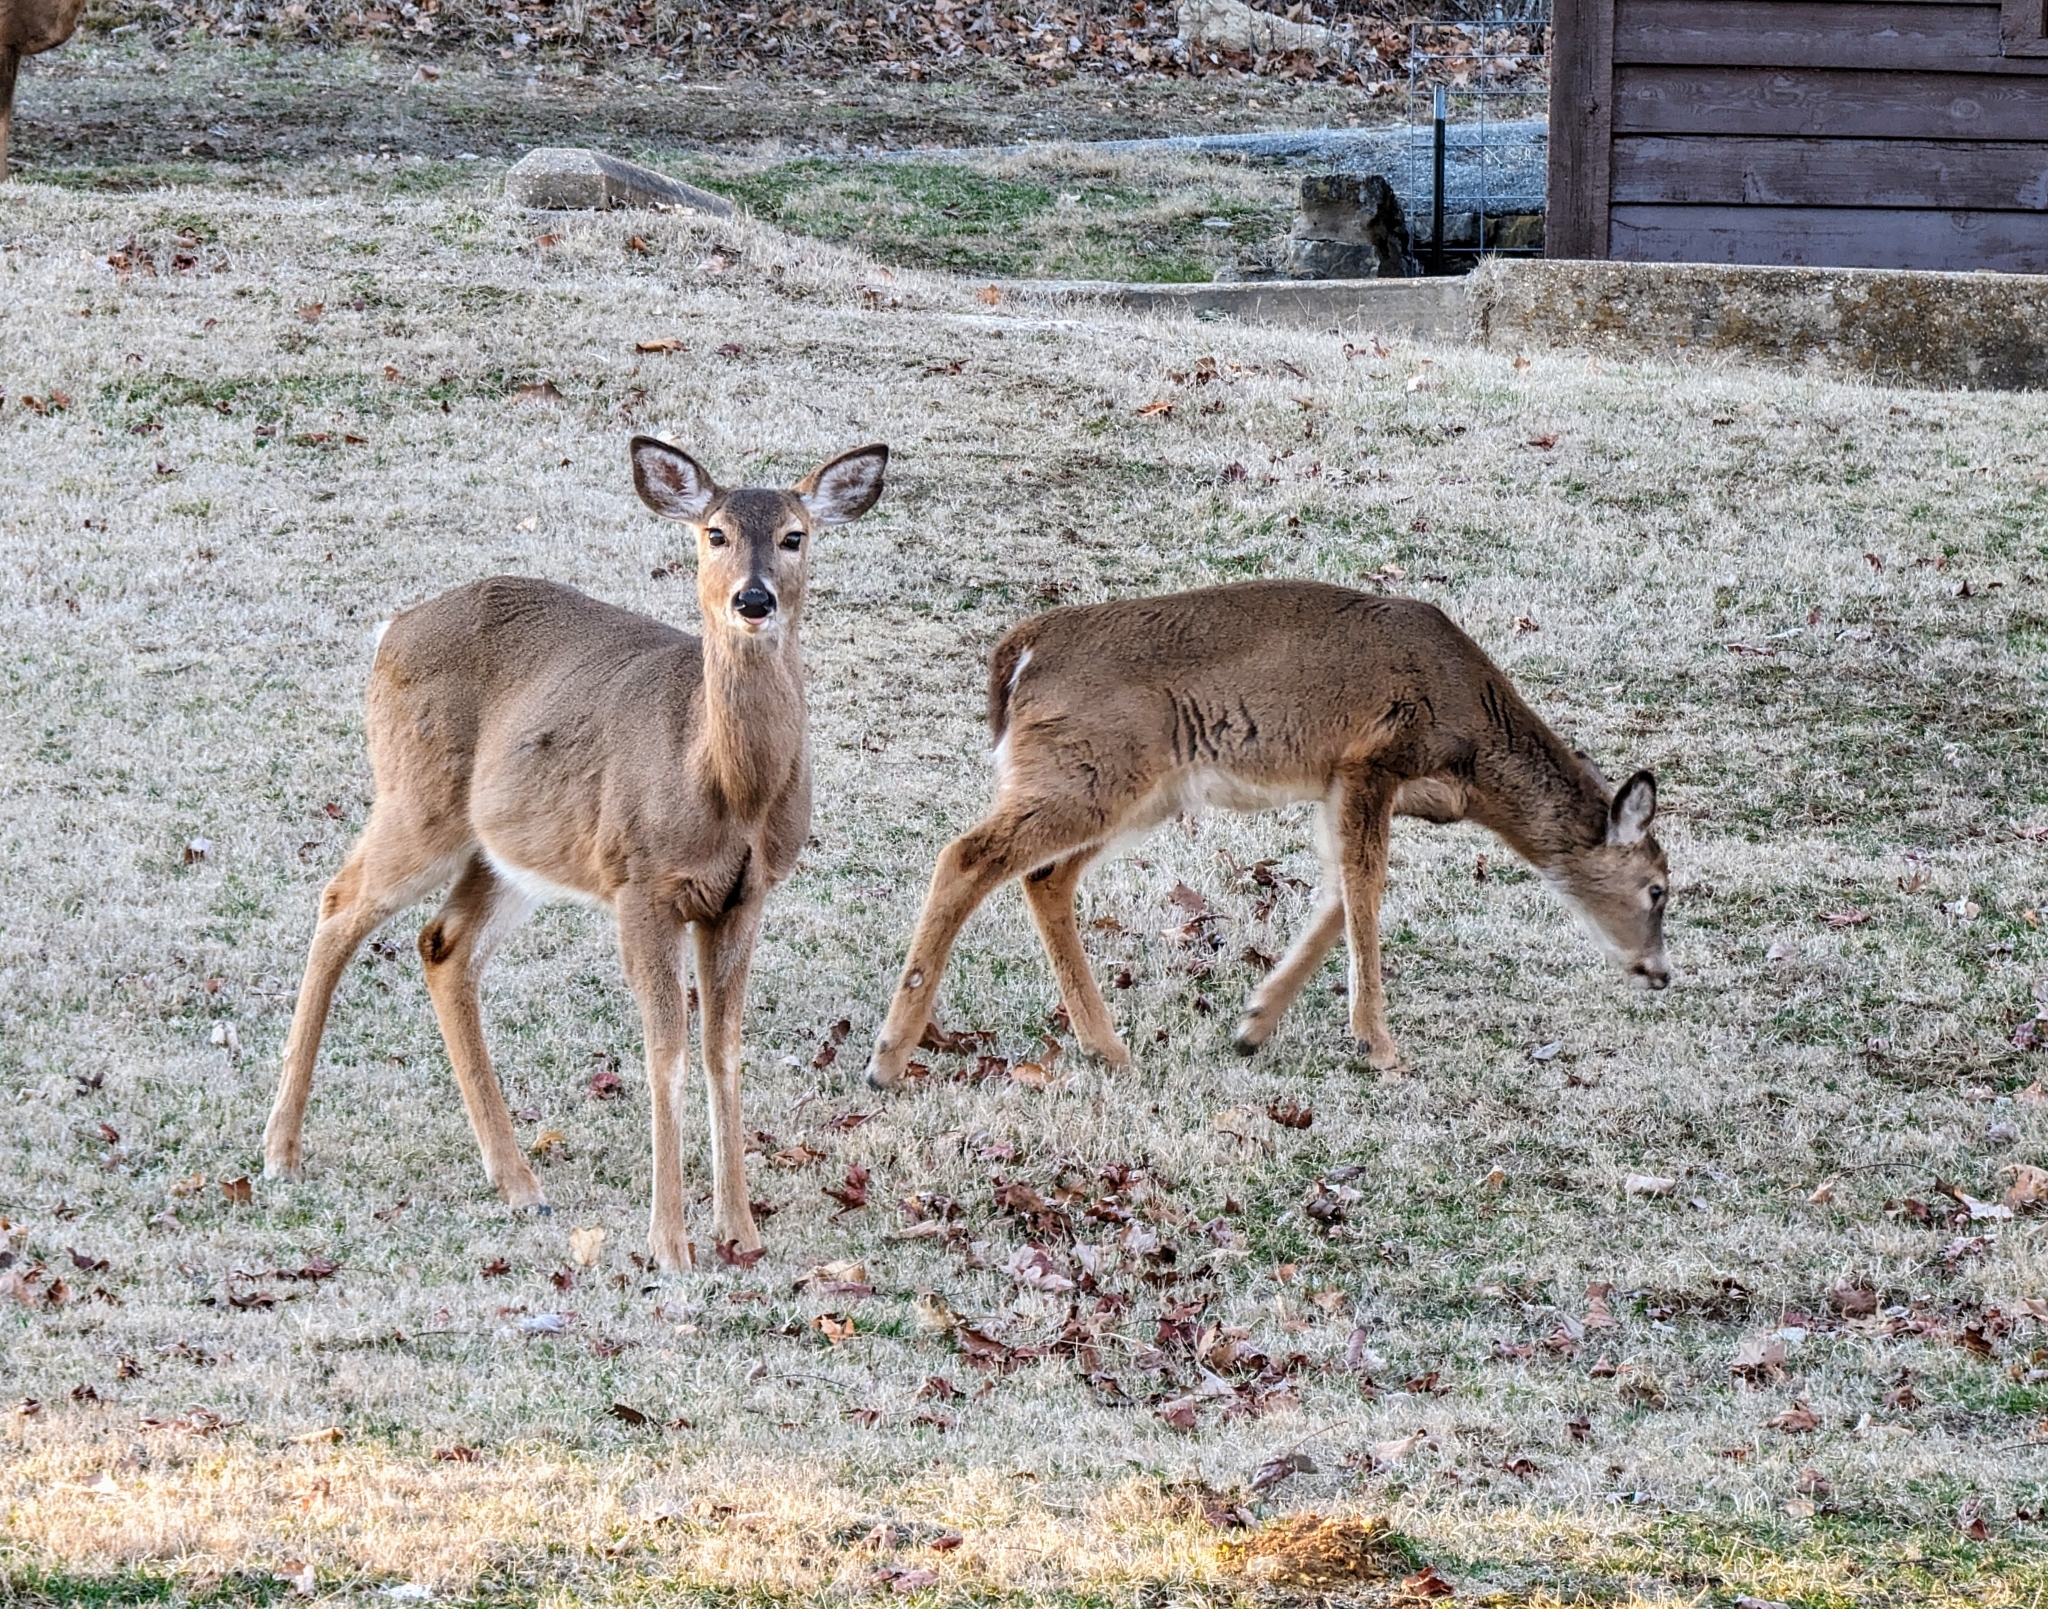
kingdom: Animalia
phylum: Chordata
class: Mammalia
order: Artiodactyla
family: Cervidae
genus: Odocoileus
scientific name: Odocoileus virginianus
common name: White-tailed deer
